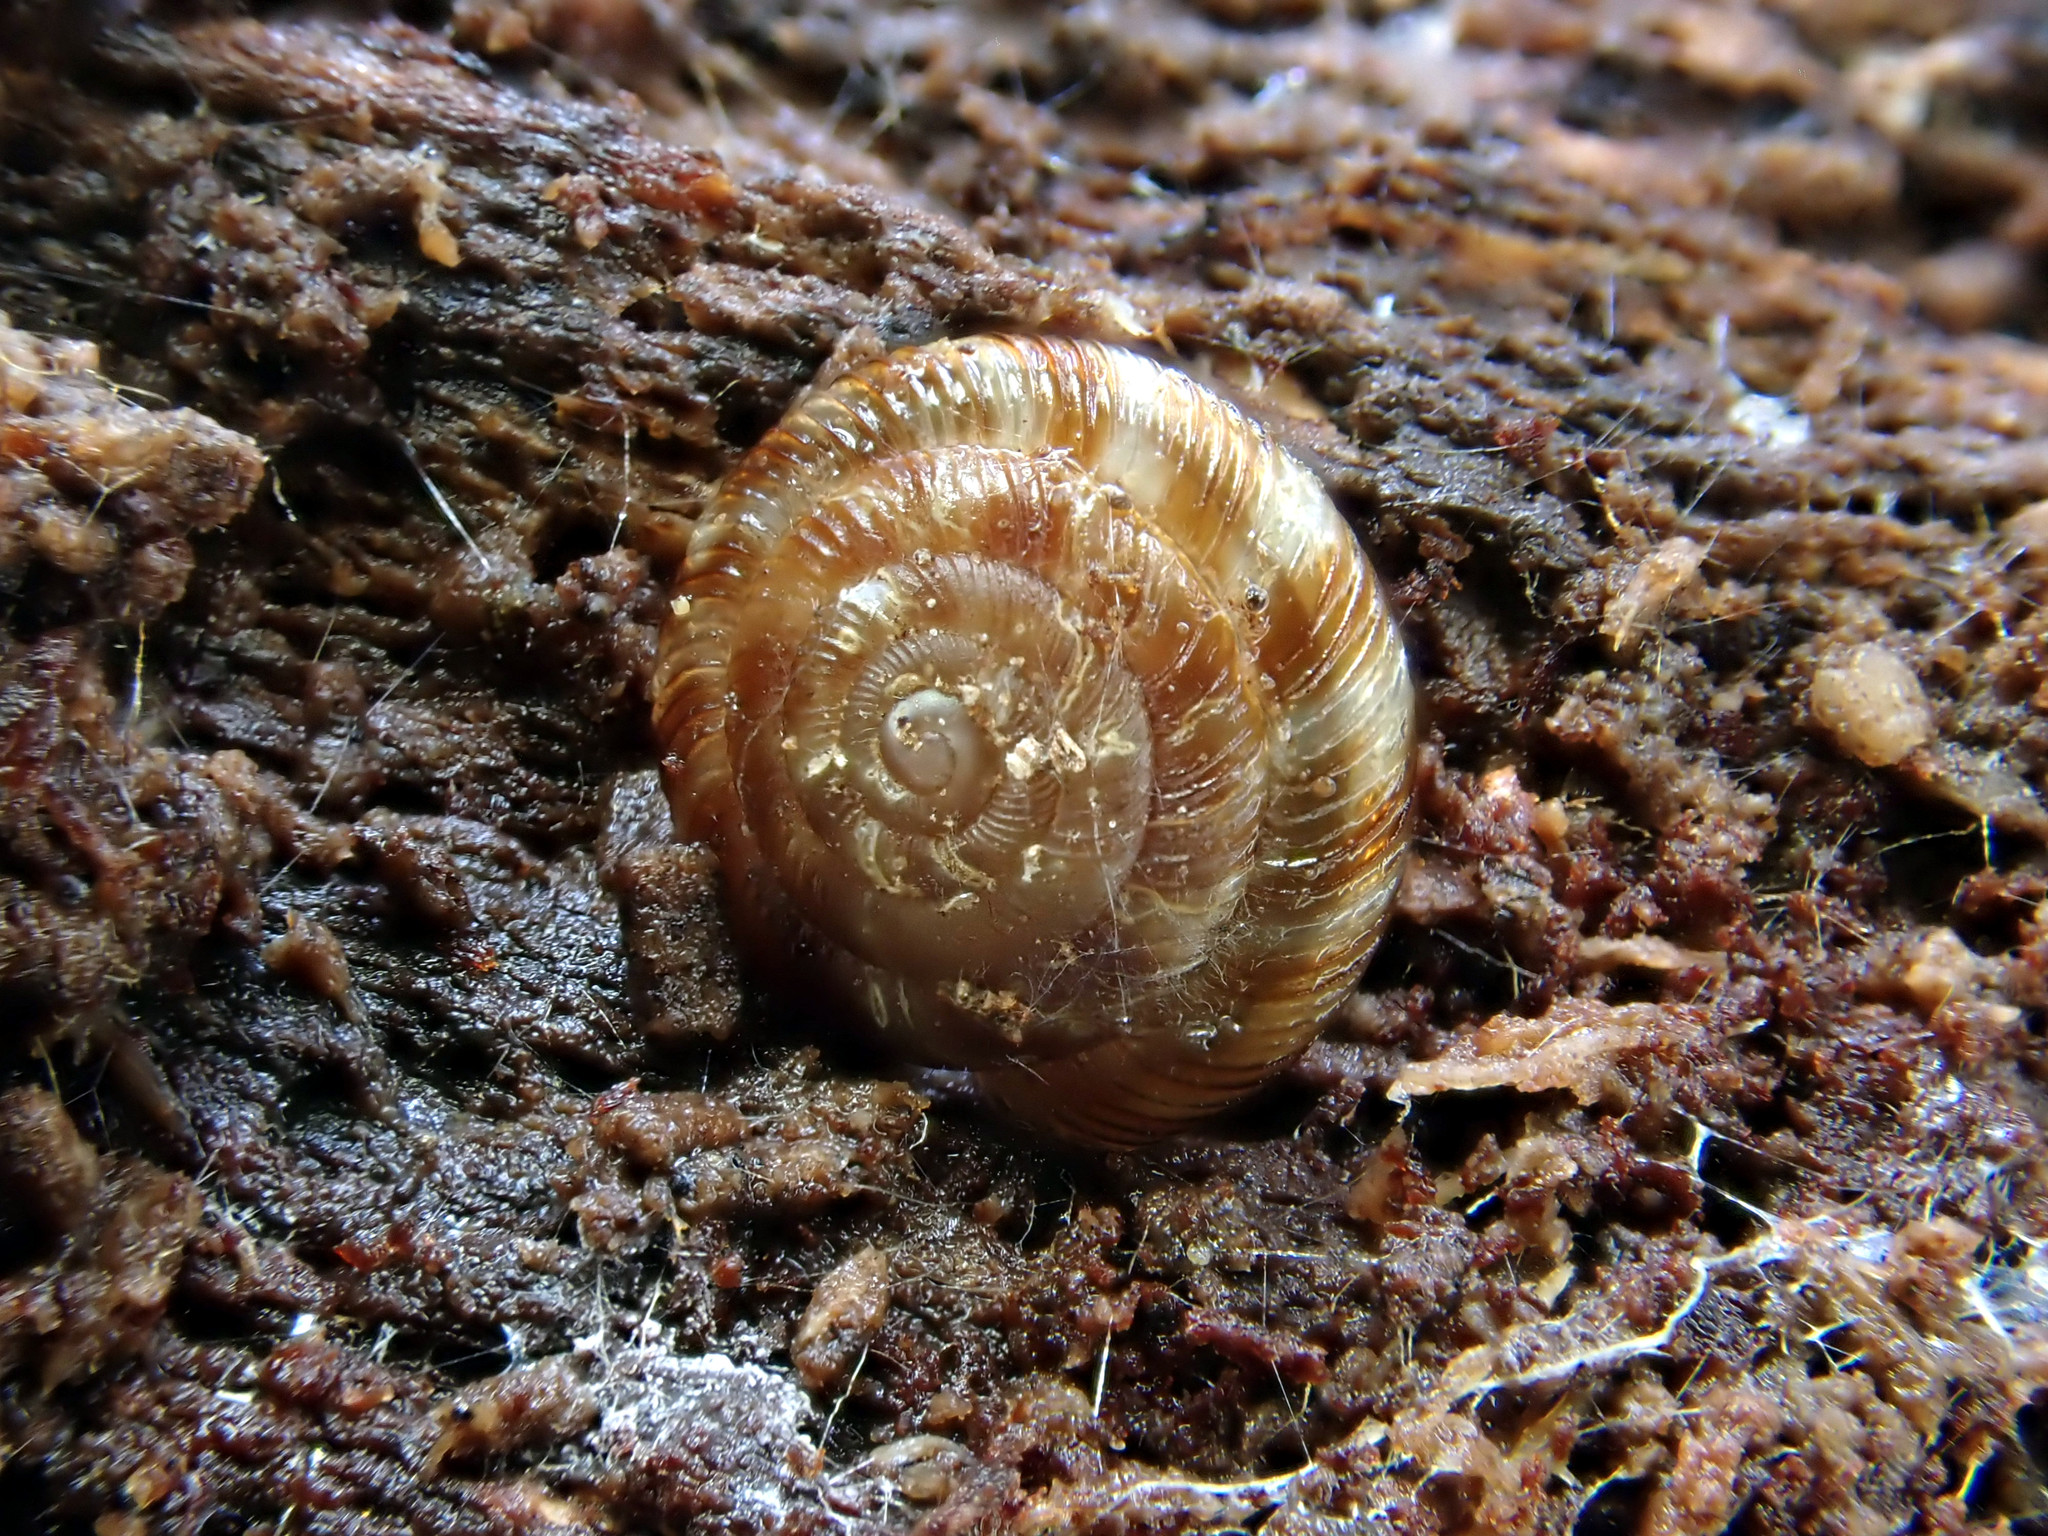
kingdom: Animalia
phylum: Mollusca
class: Gastropoda
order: Stylommatophora
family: Discidae
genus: Discus
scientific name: Discus rotundatus
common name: Rounded snail
